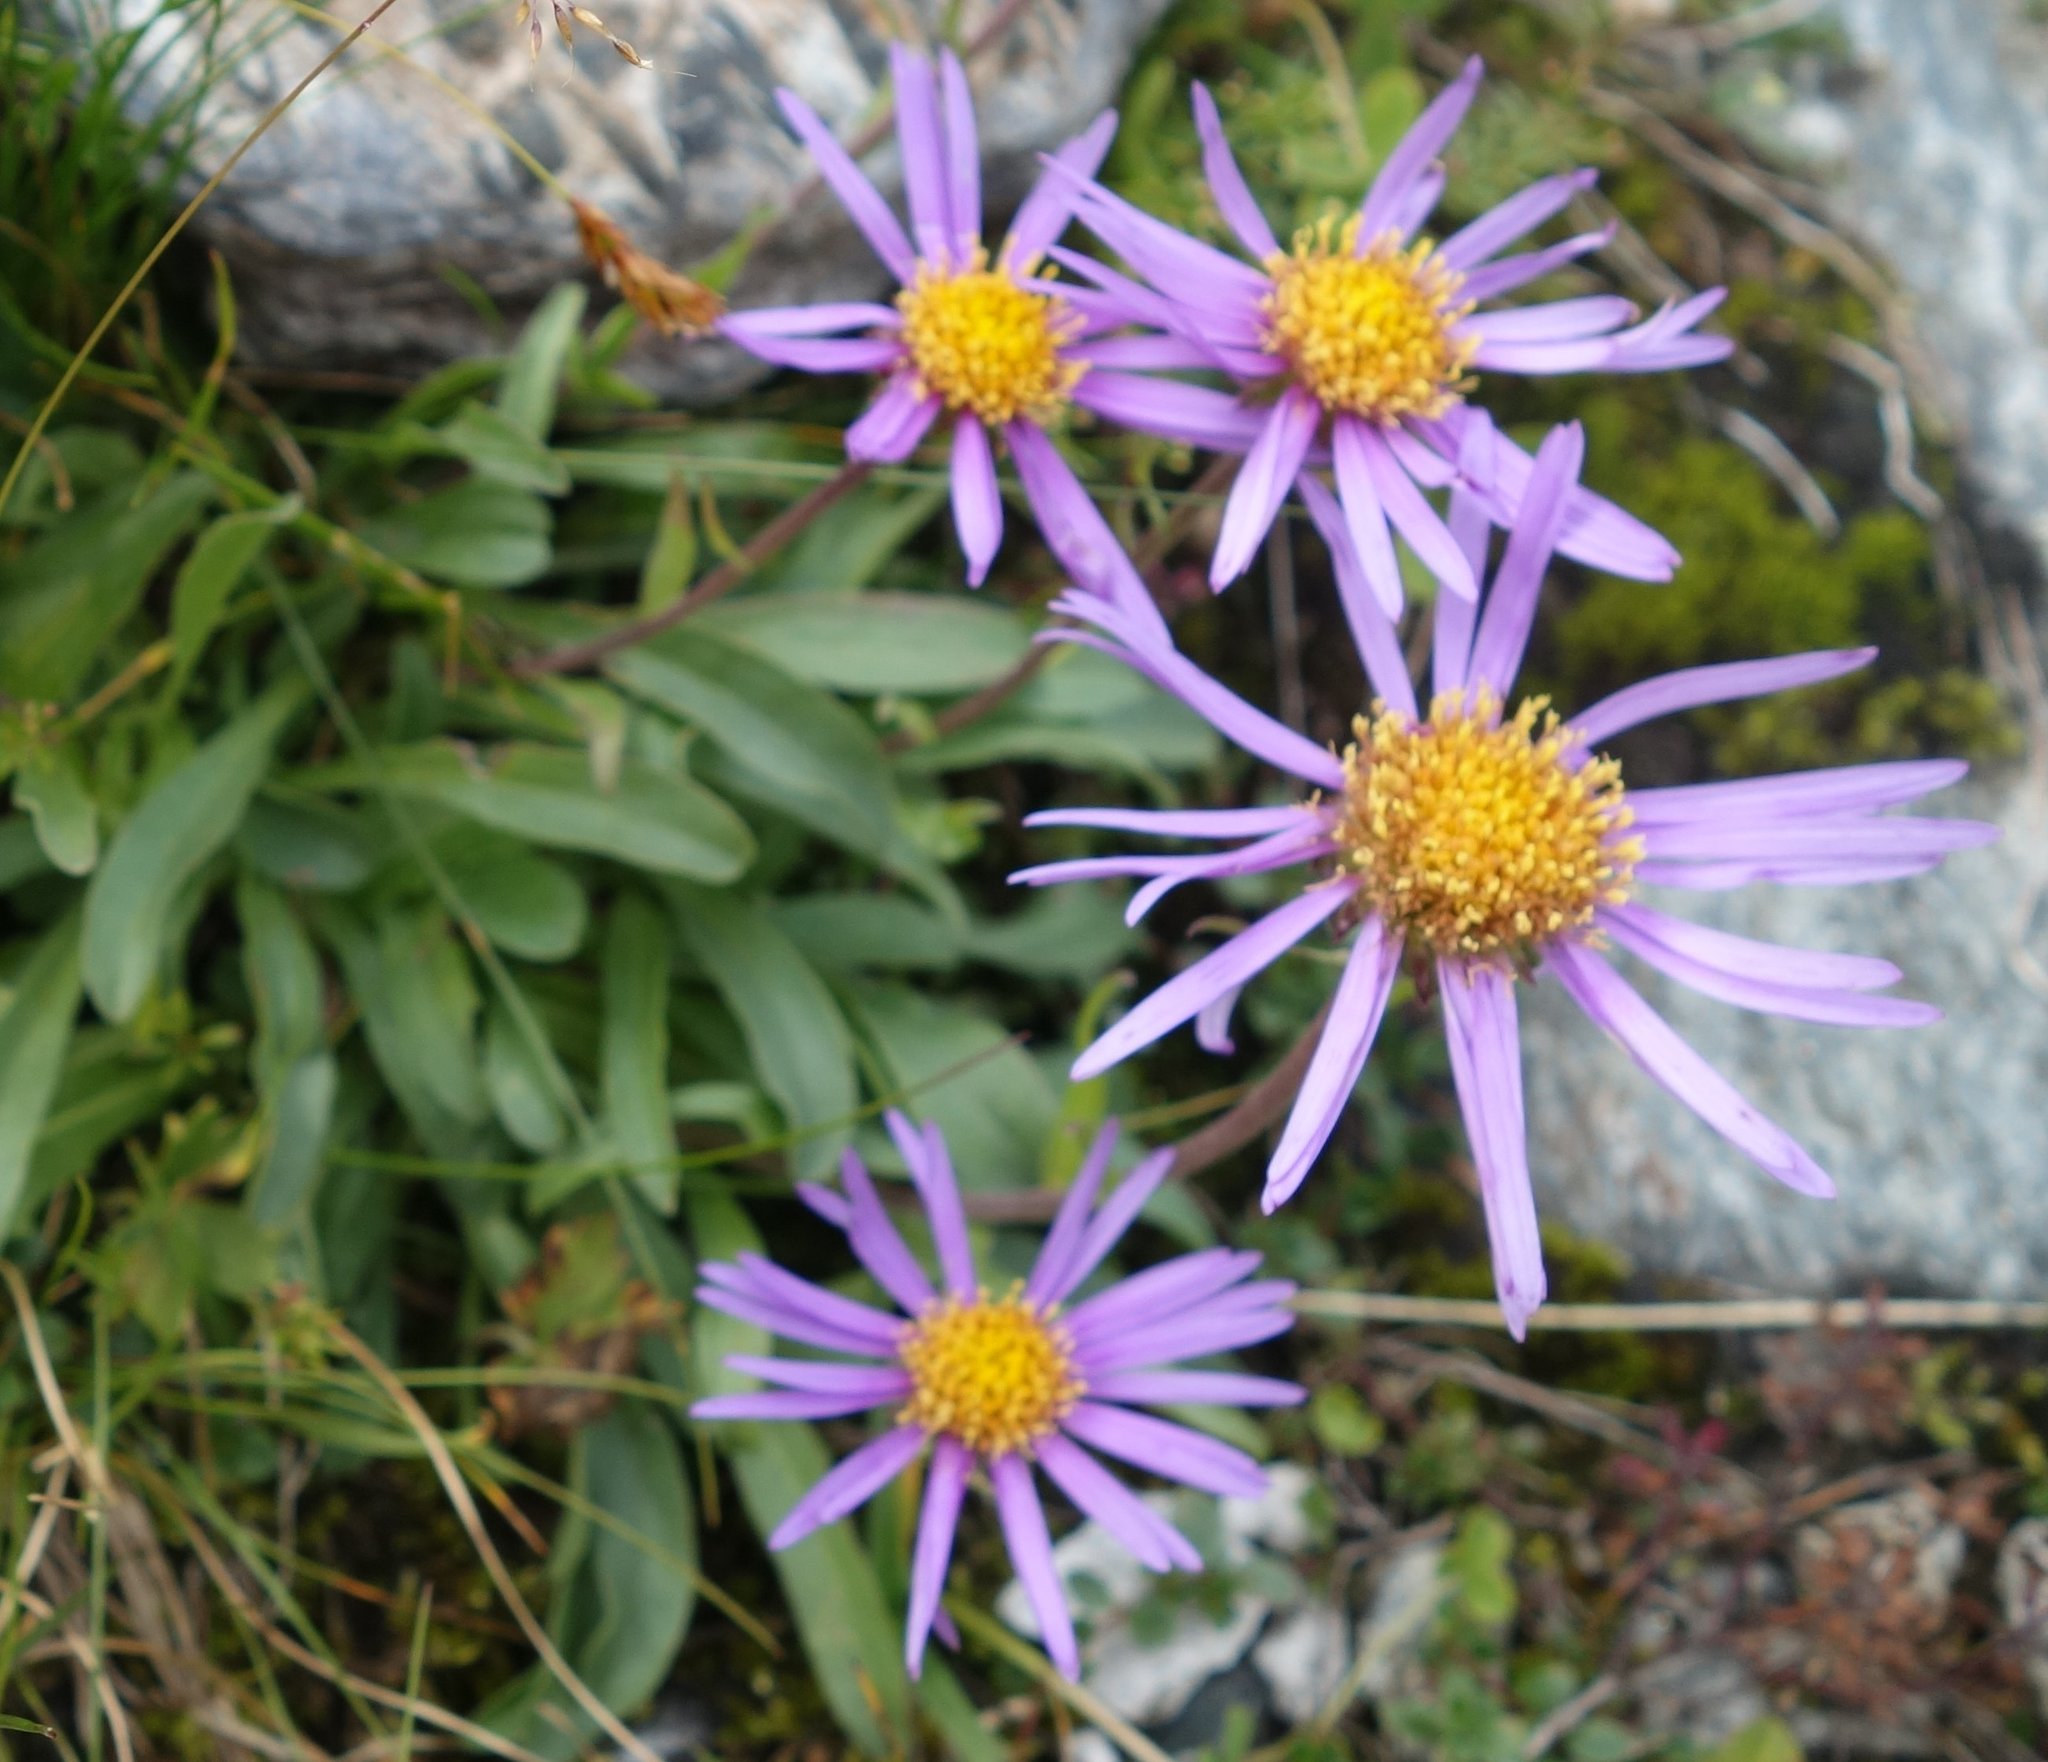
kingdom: Plantae
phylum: Tracheophyta
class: Magnoliopsida
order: Asterales
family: Asteraceae
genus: Aster
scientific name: Aster alpinus
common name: Alpine aster
